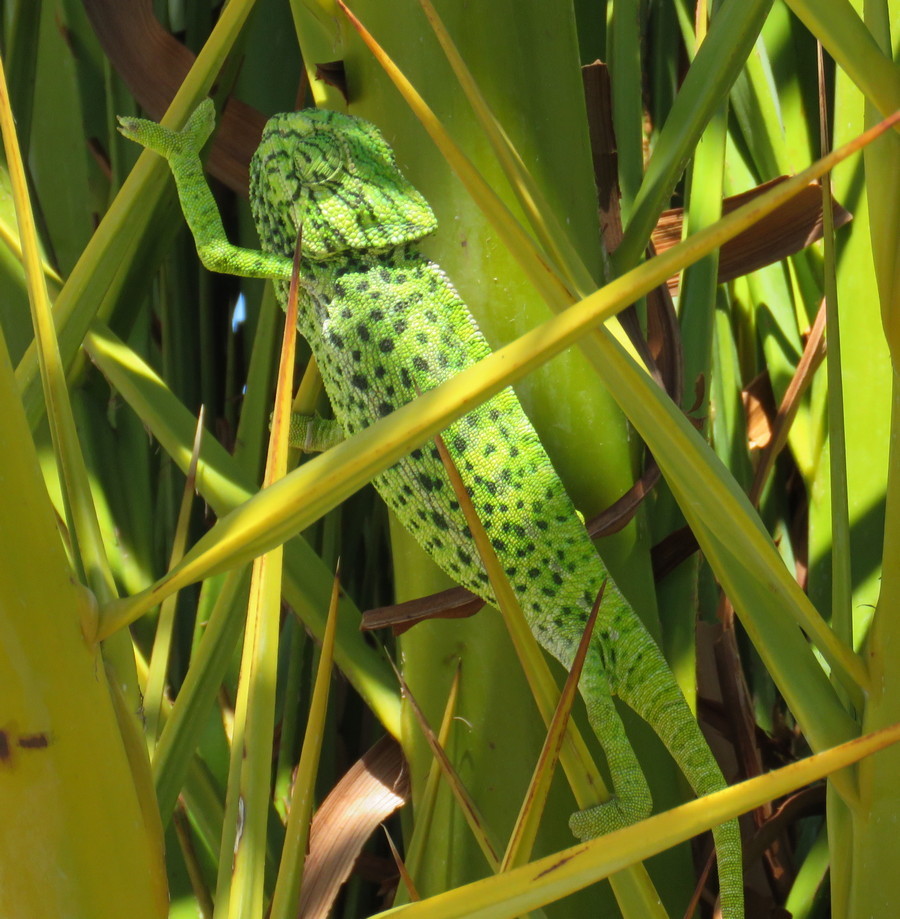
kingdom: Animalia
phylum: Chordata
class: Squamata
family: Chamaeleonidae
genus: Chamaeleo
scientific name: Chamaeleo chamaeleon
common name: Mediterranean chameleon
